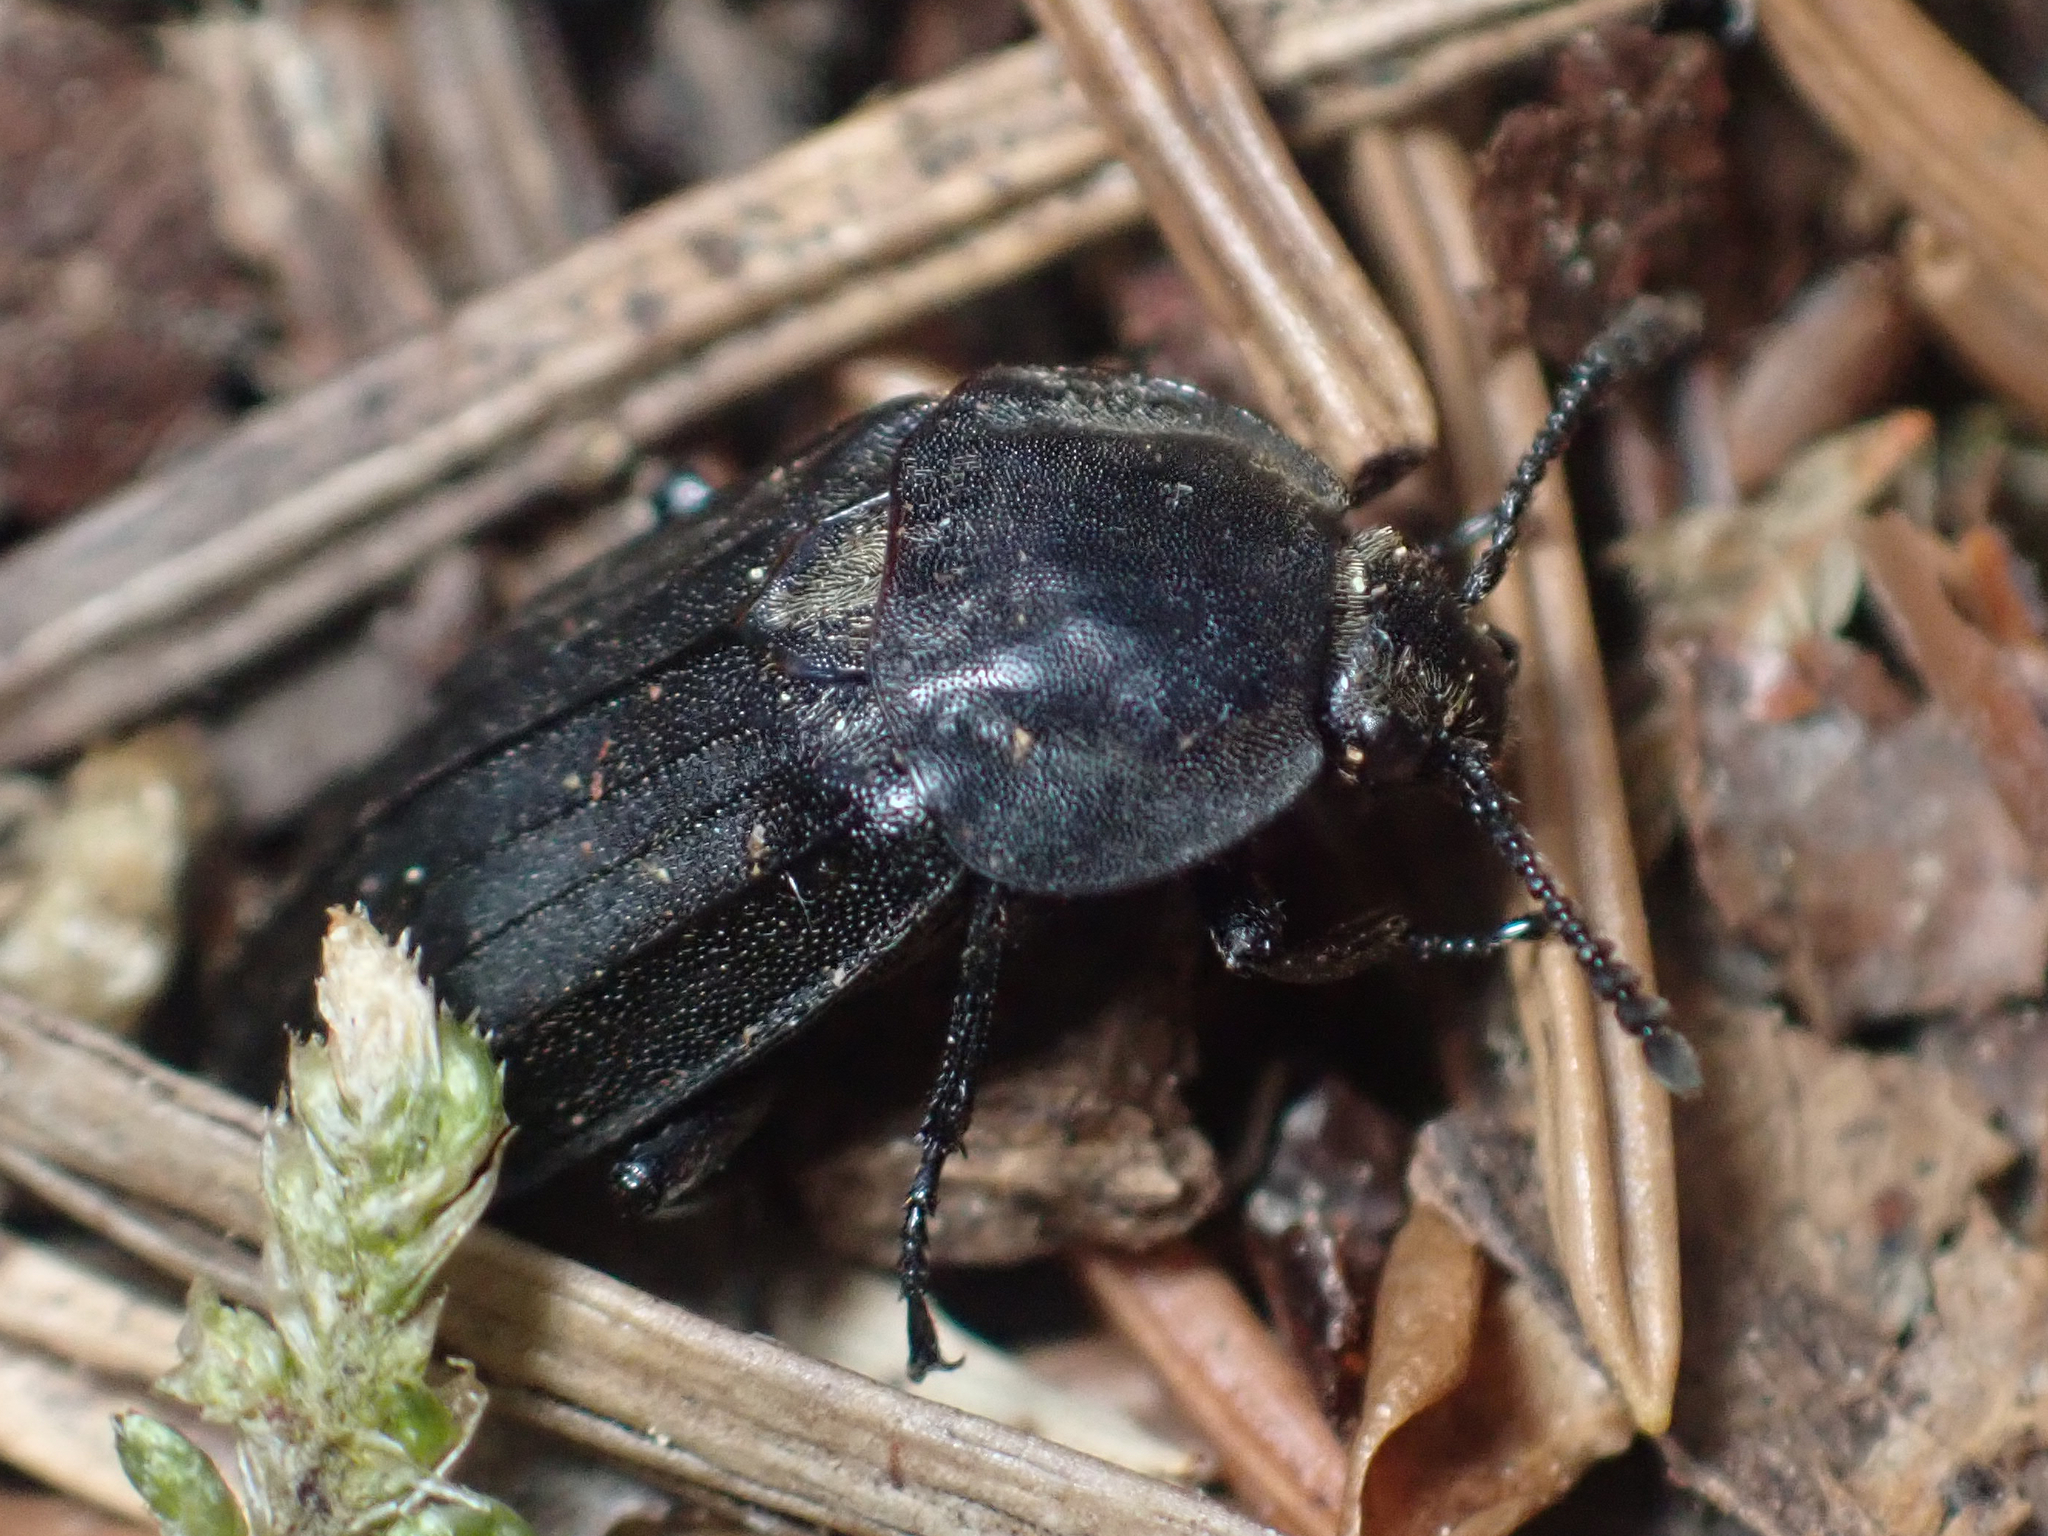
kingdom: Animalia
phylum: Arthropoda
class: Insecta
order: Coleoptera
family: Staphylinidae
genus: Thanatophilus
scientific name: Thanatophilus sagax
